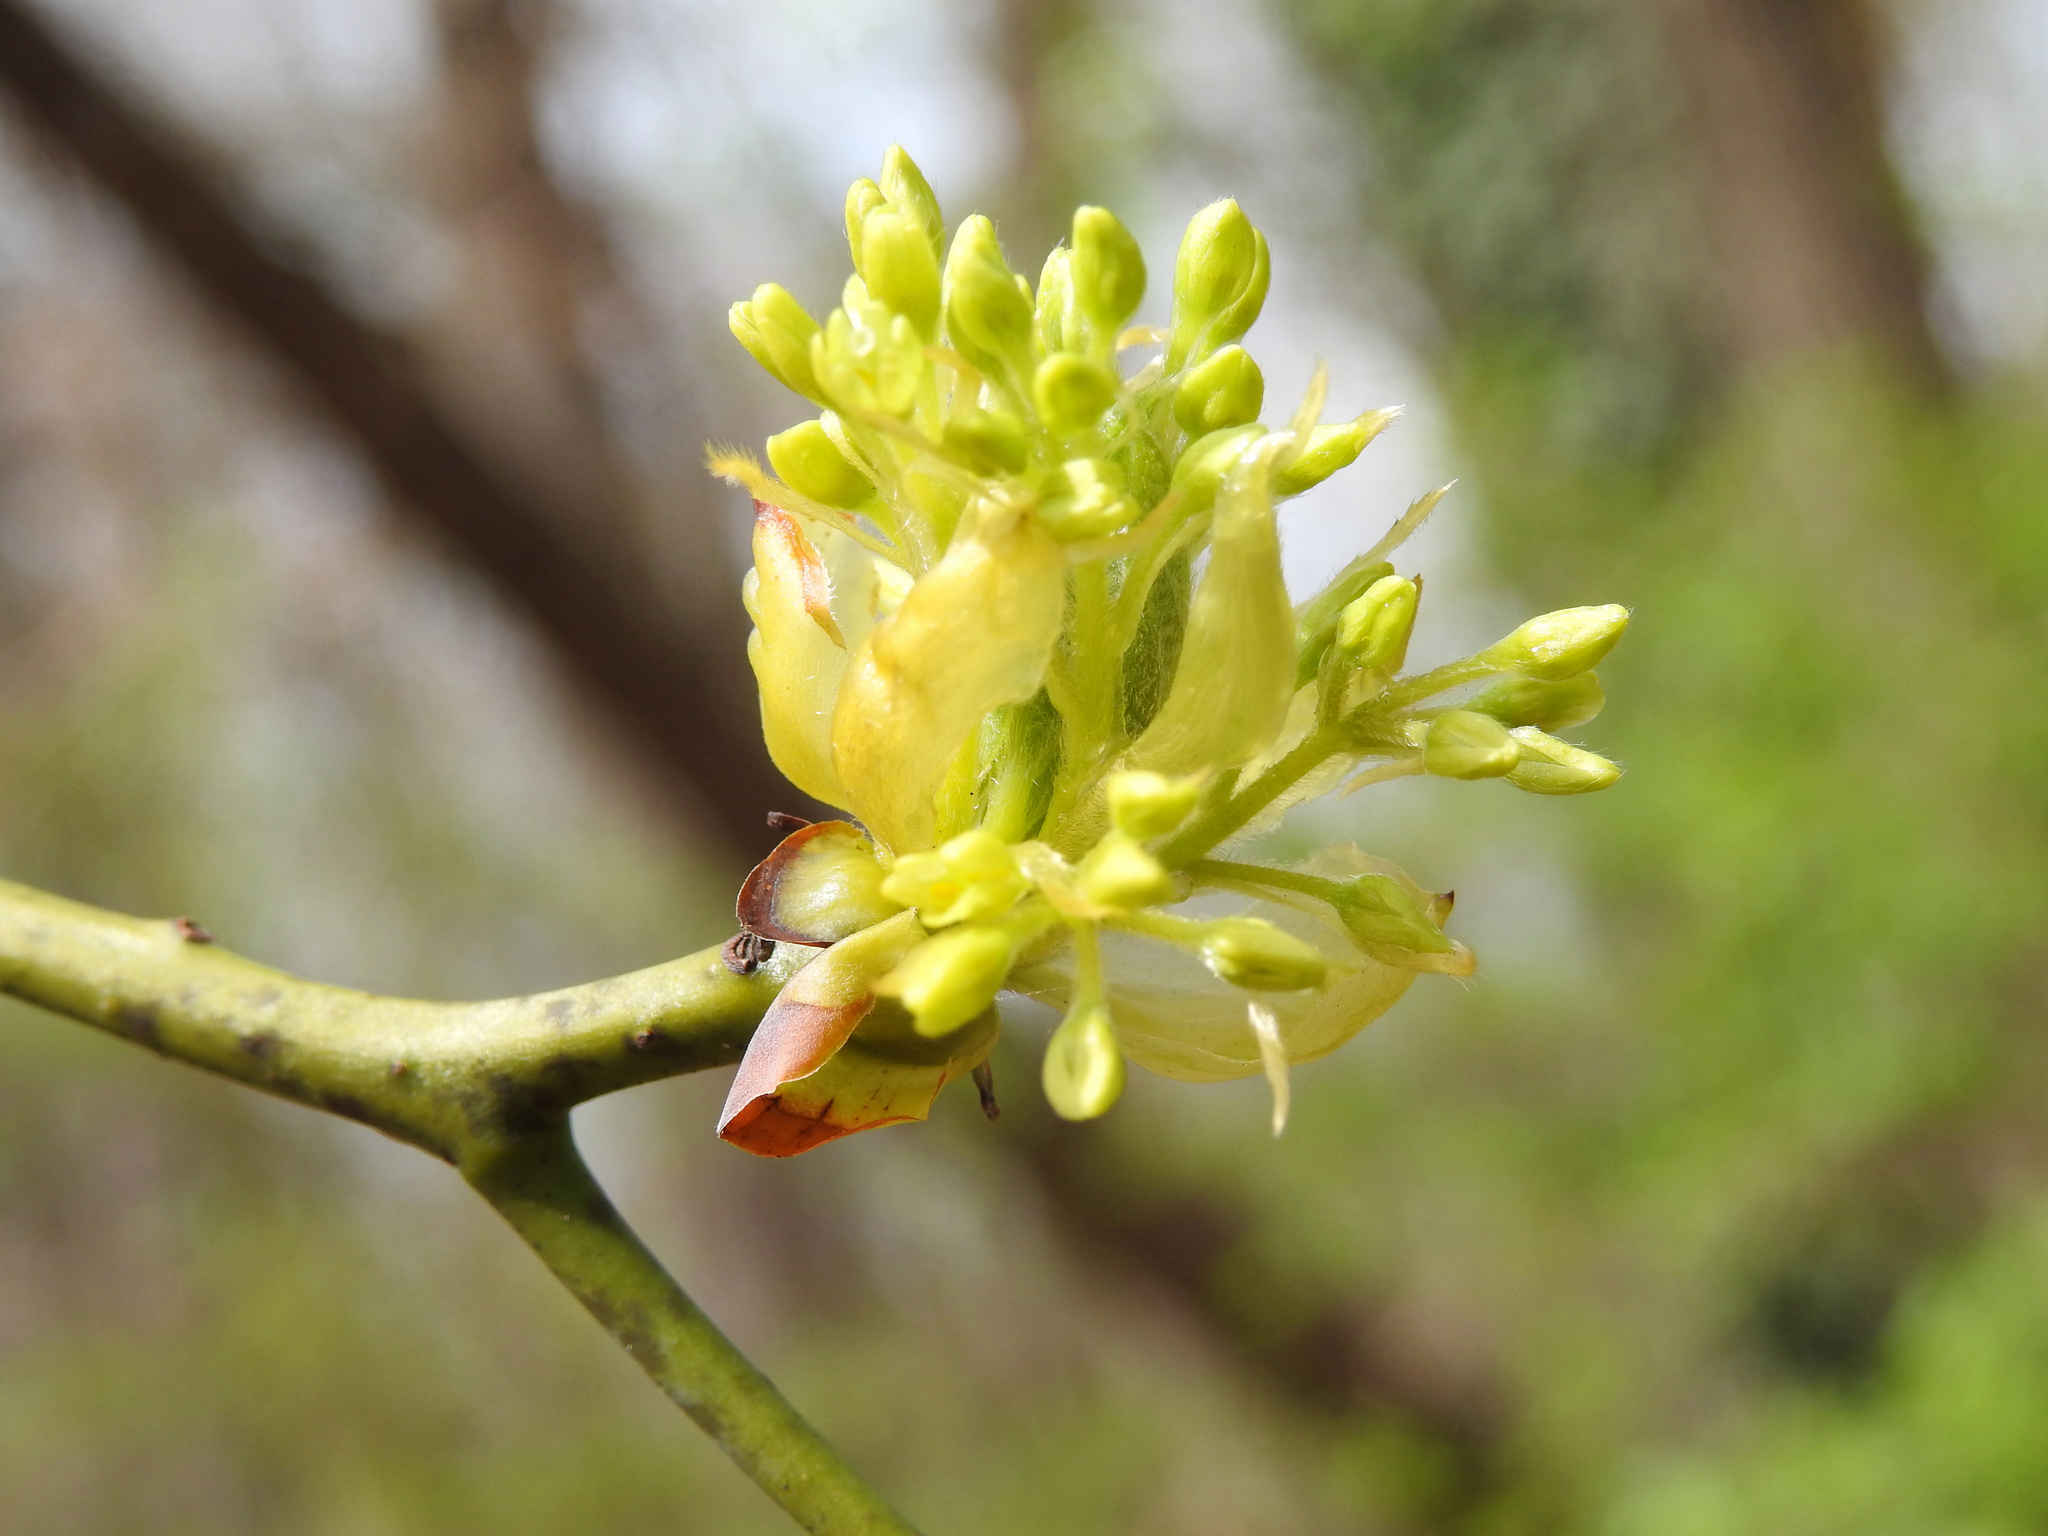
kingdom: Plantae
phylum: Tracheophyta
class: Magnoliopsida
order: Laurales
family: Lauraceae
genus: Sassafras
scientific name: Sassafras albidum
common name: Sassafras
